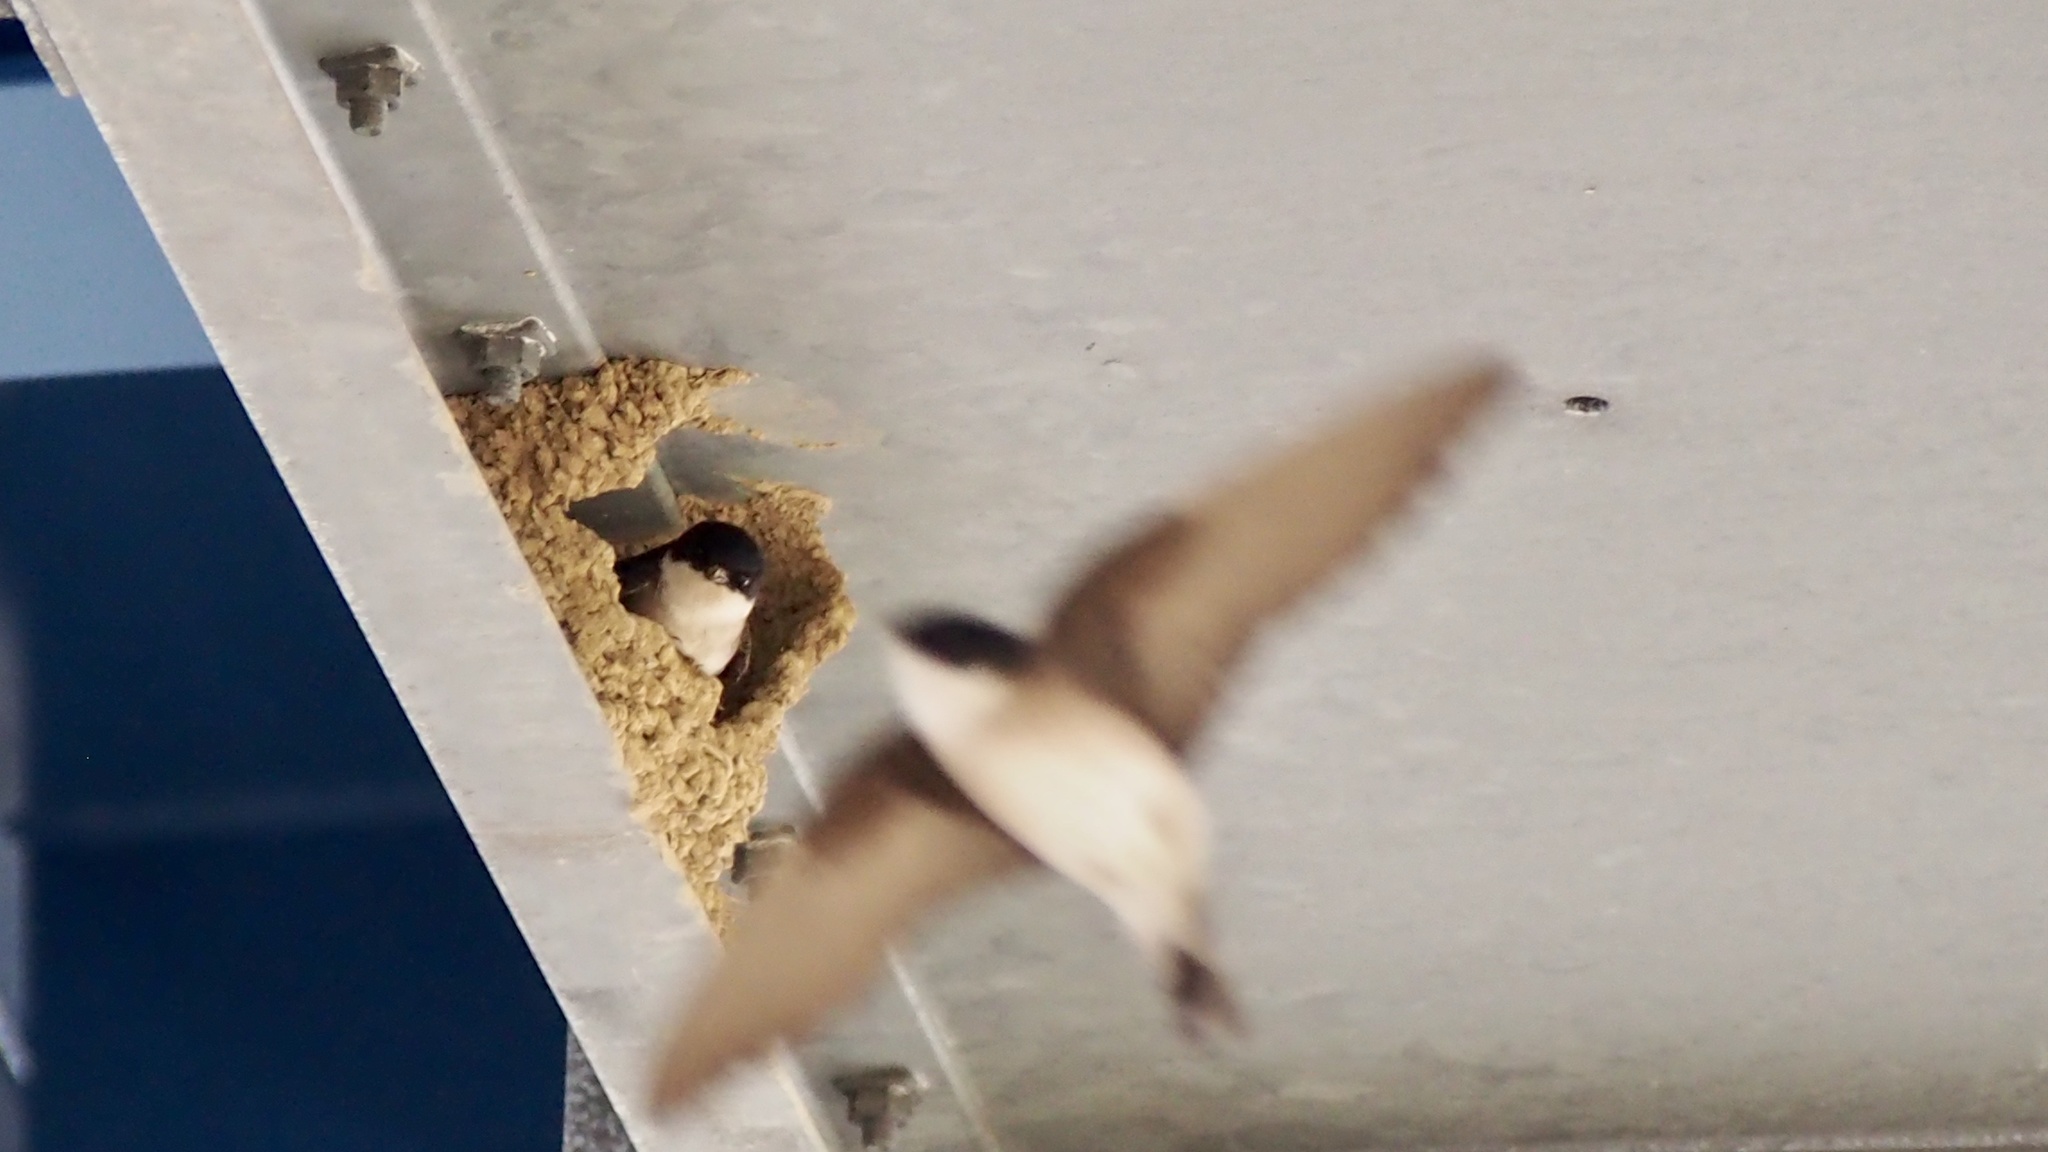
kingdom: Animalia
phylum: Chordata
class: Aves
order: Passeriformes
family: Hirundinidae
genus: Delichon
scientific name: Delichon dasypus
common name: Asian house martin
